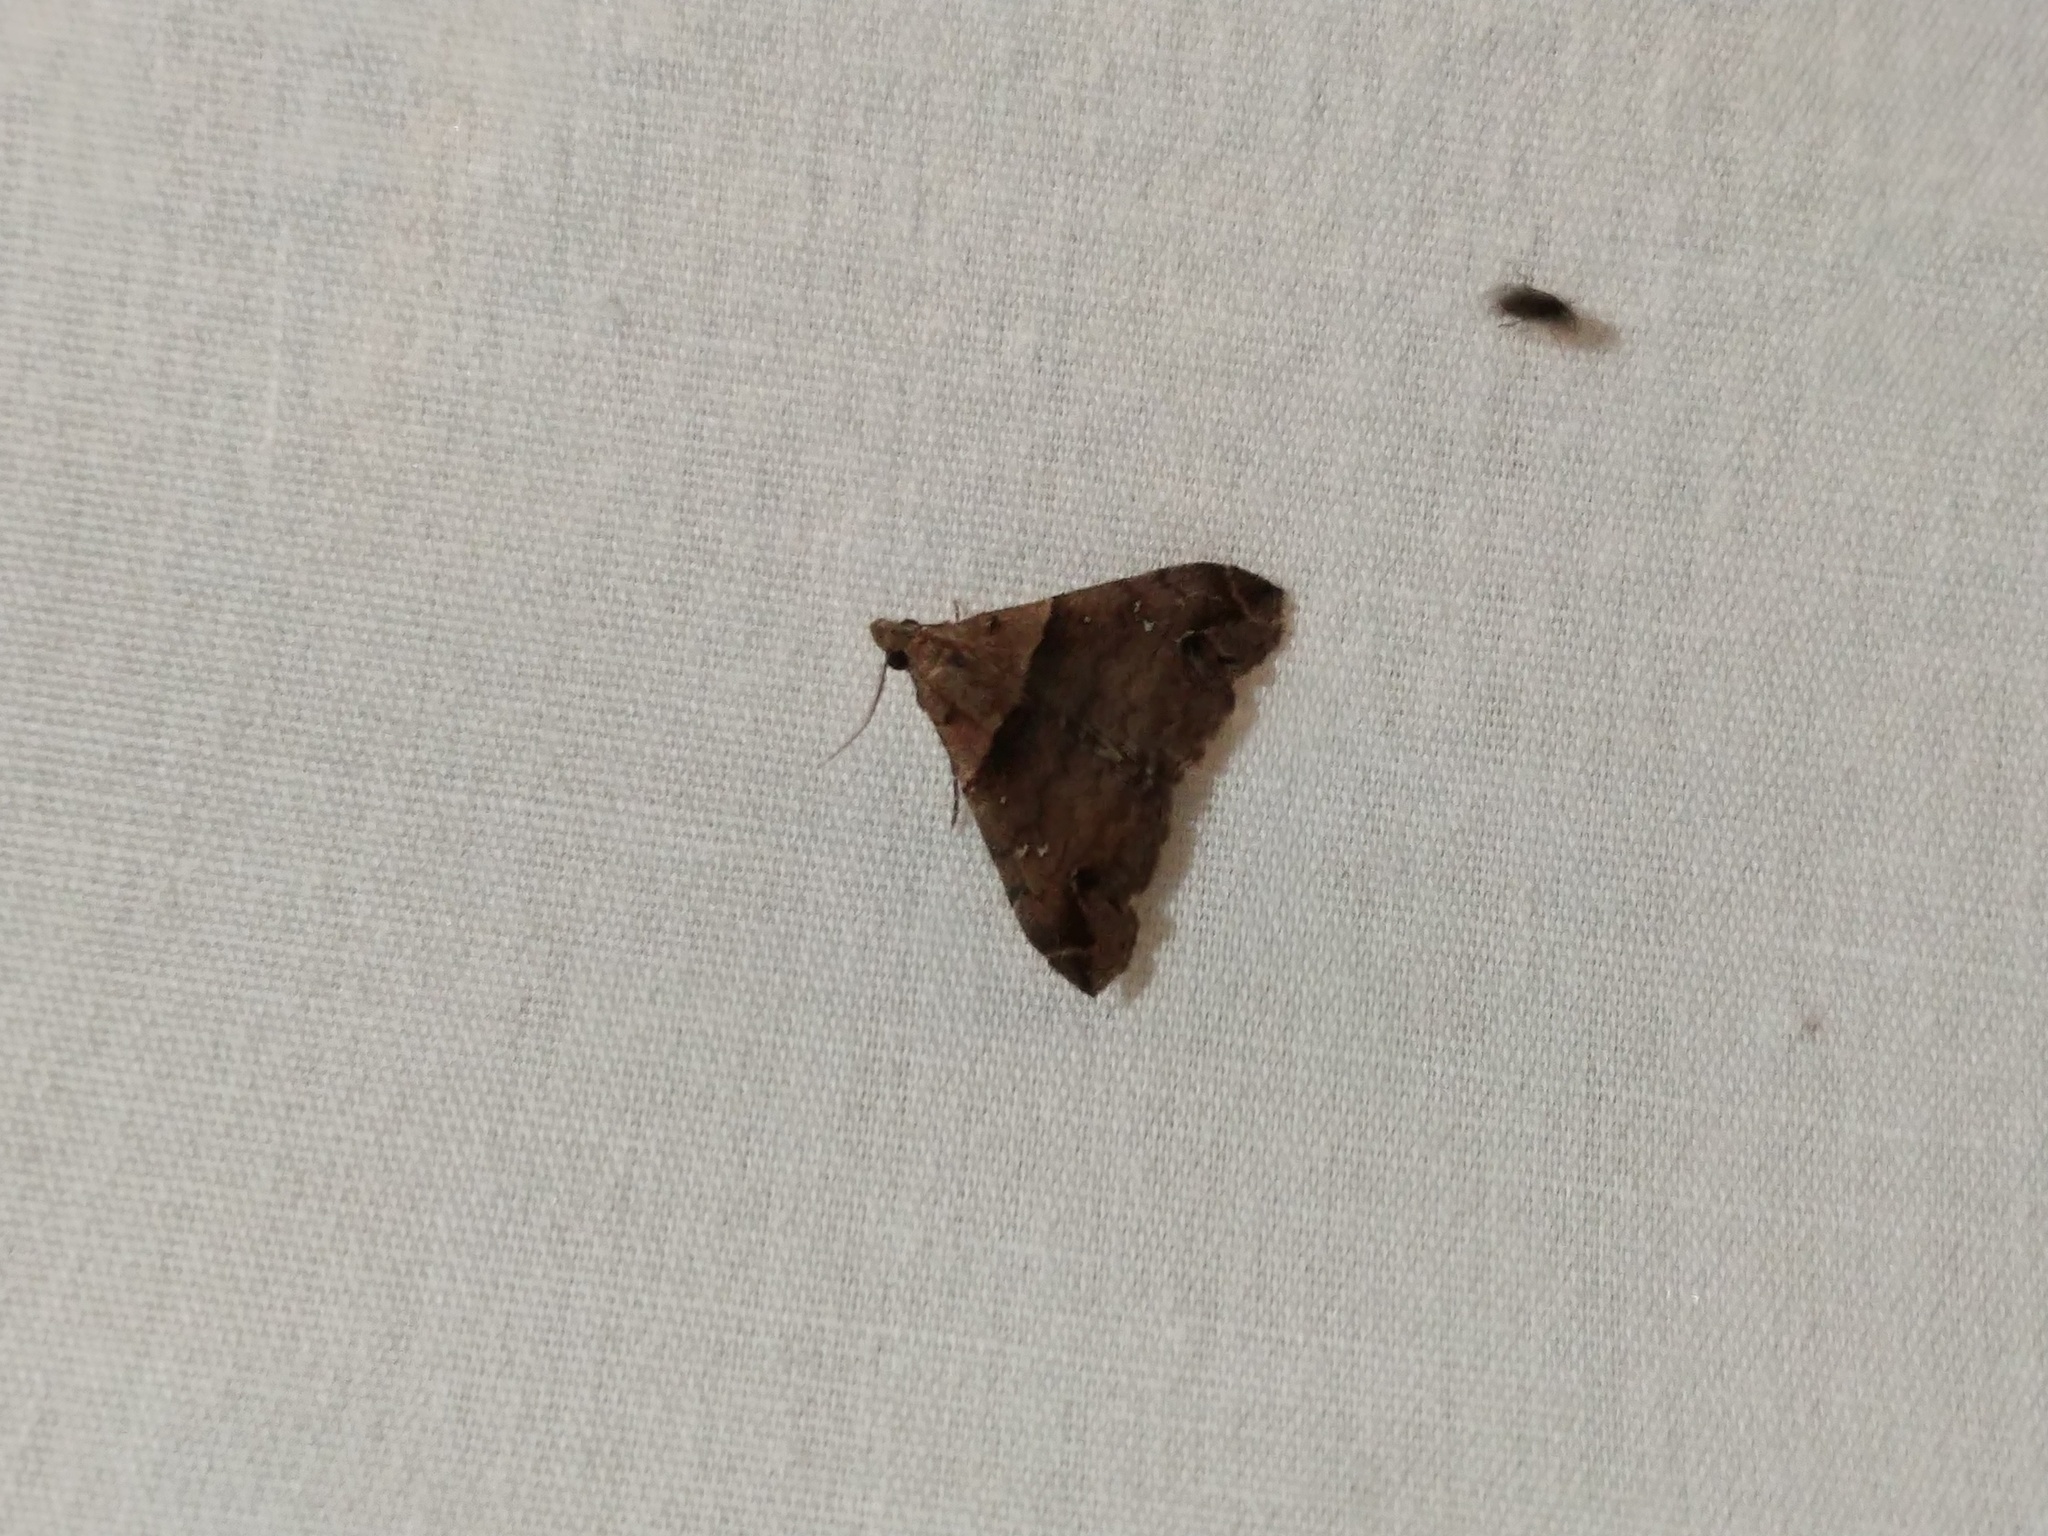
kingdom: Animalia
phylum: Arthropoda
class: Insecta
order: Lepidoptera
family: Erebidae
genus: Lascoria
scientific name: Lascoria ambigualis
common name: Ambiguous moth
